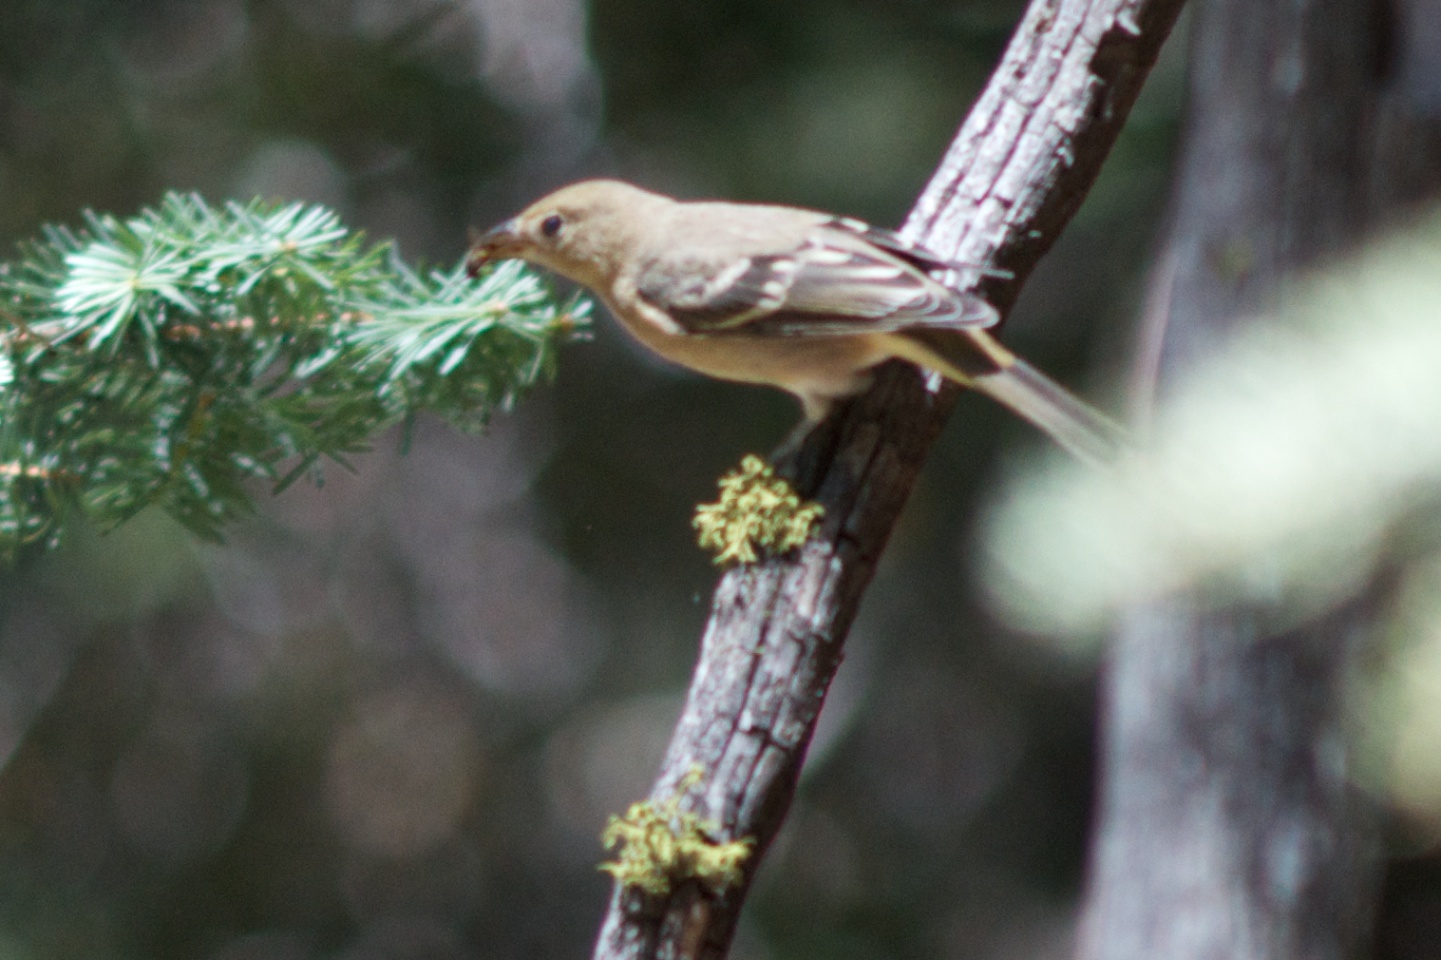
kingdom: Animalia
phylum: Chordata
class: Aves
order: Passeriformes
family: Cardinalidae
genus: Piranga
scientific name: Piranga ludoviciana
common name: Western tanager
